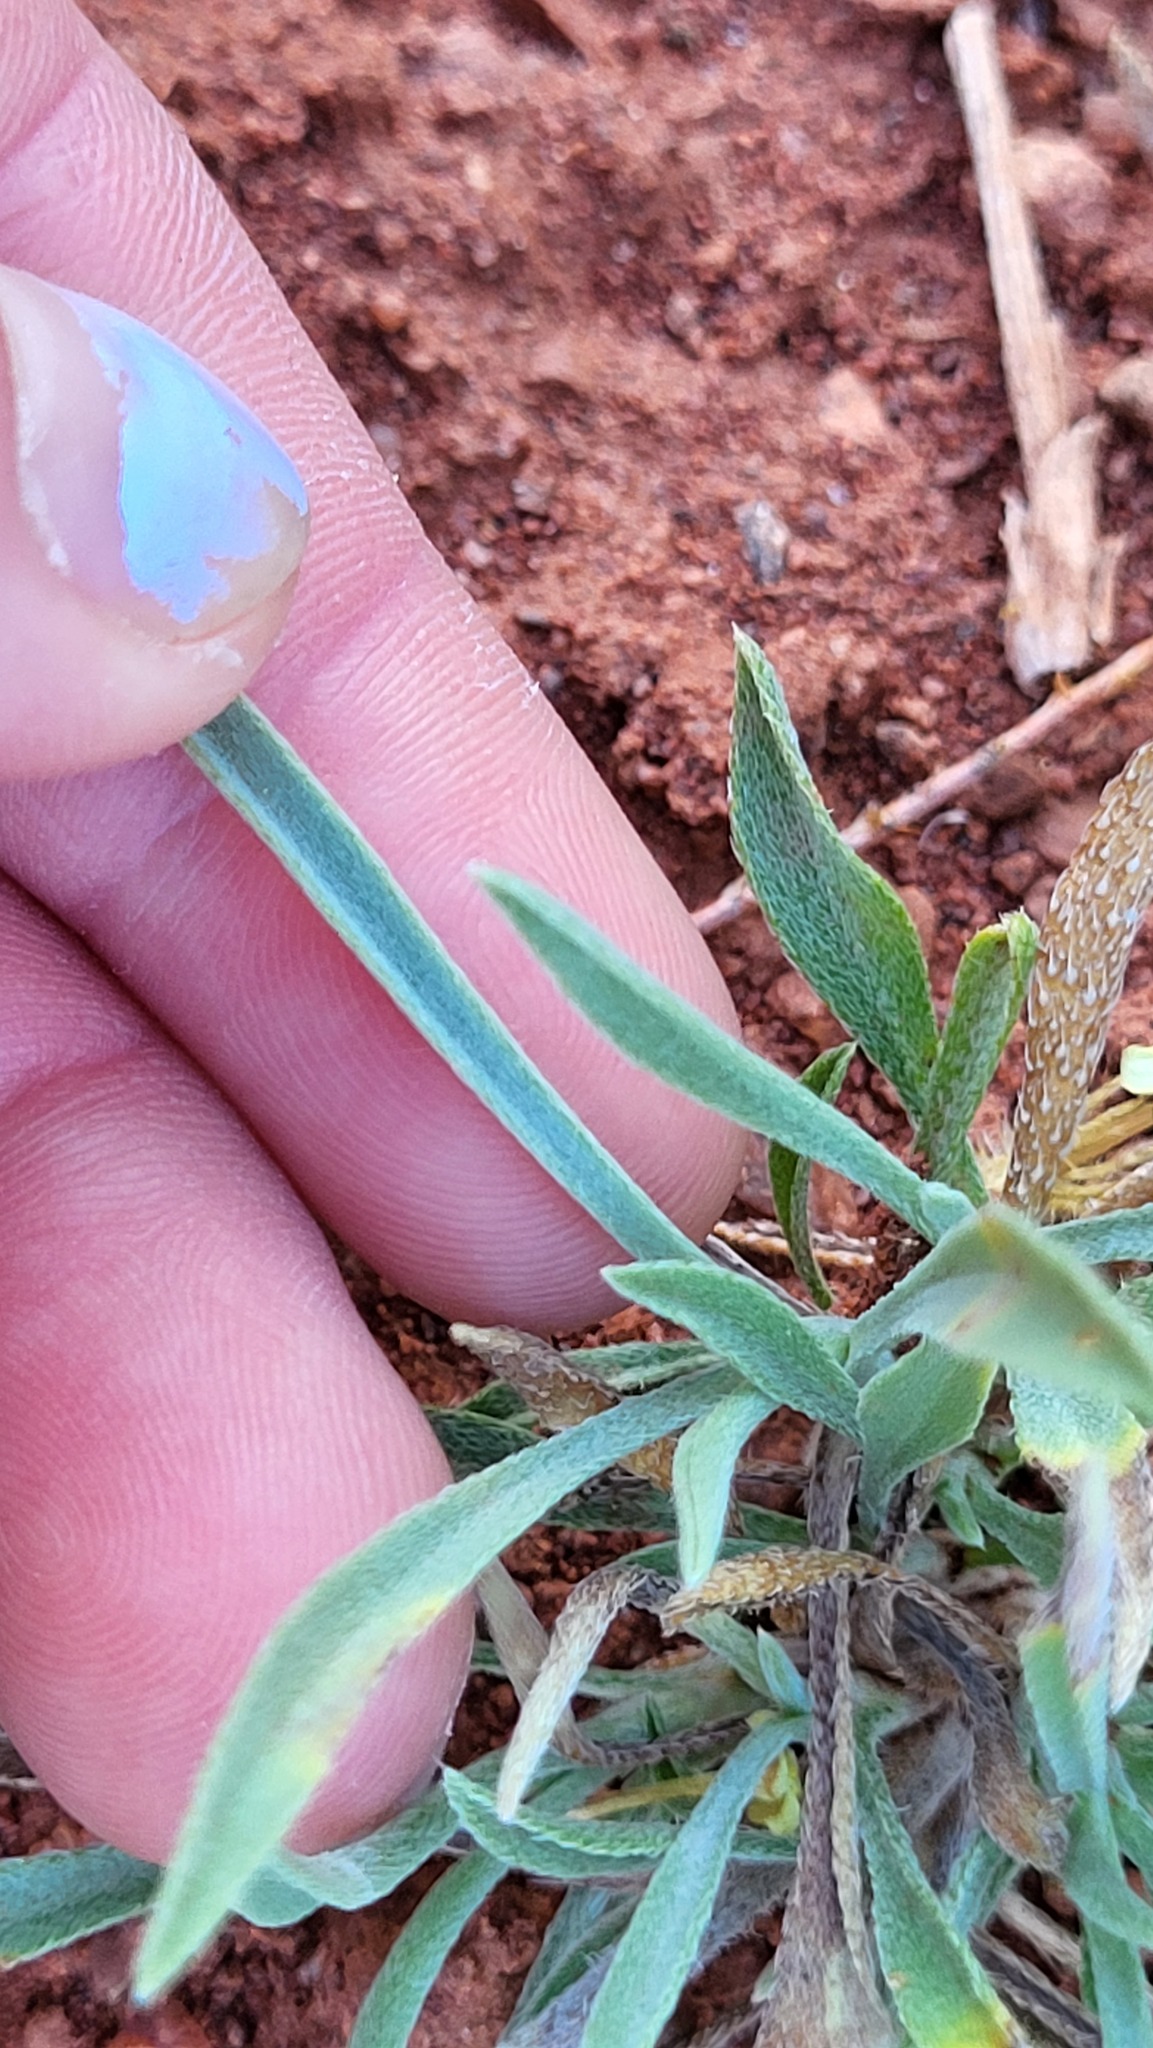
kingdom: Plantae
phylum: Tracheophyta
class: Magnoliopsida
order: Boraginales
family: Boraginaceae
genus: Oreocarya
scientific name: Oreocarya flava
